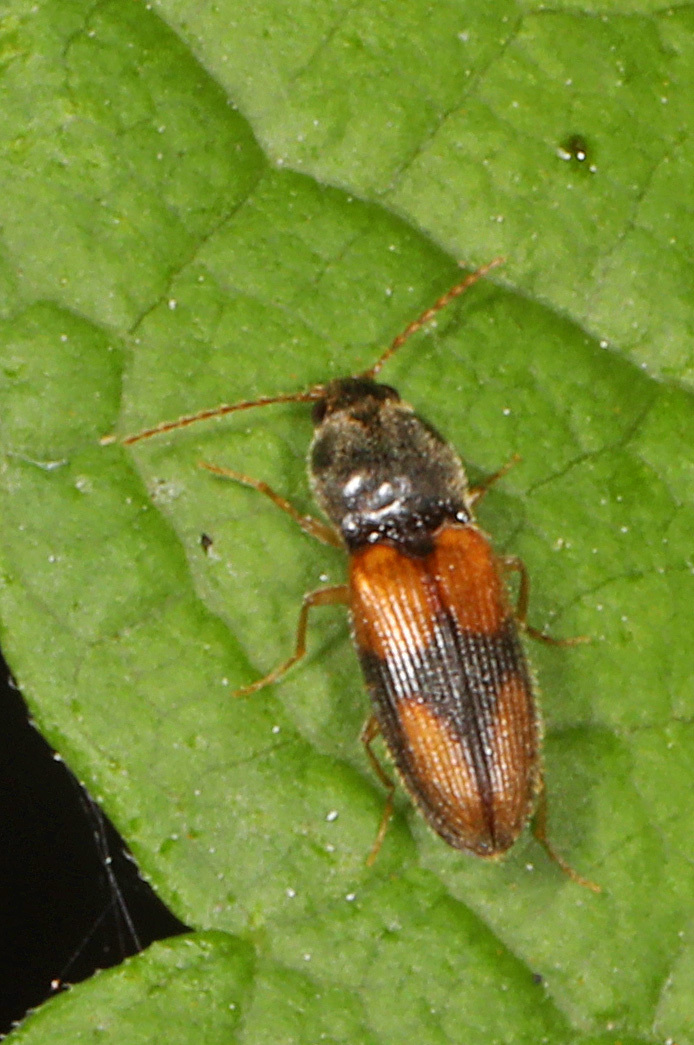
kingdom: Animalia
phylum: Arthropoda
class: Insecta
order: Coleoptera
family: Elateridae
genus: Horistonotus
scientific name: Horistonotus curiatus
